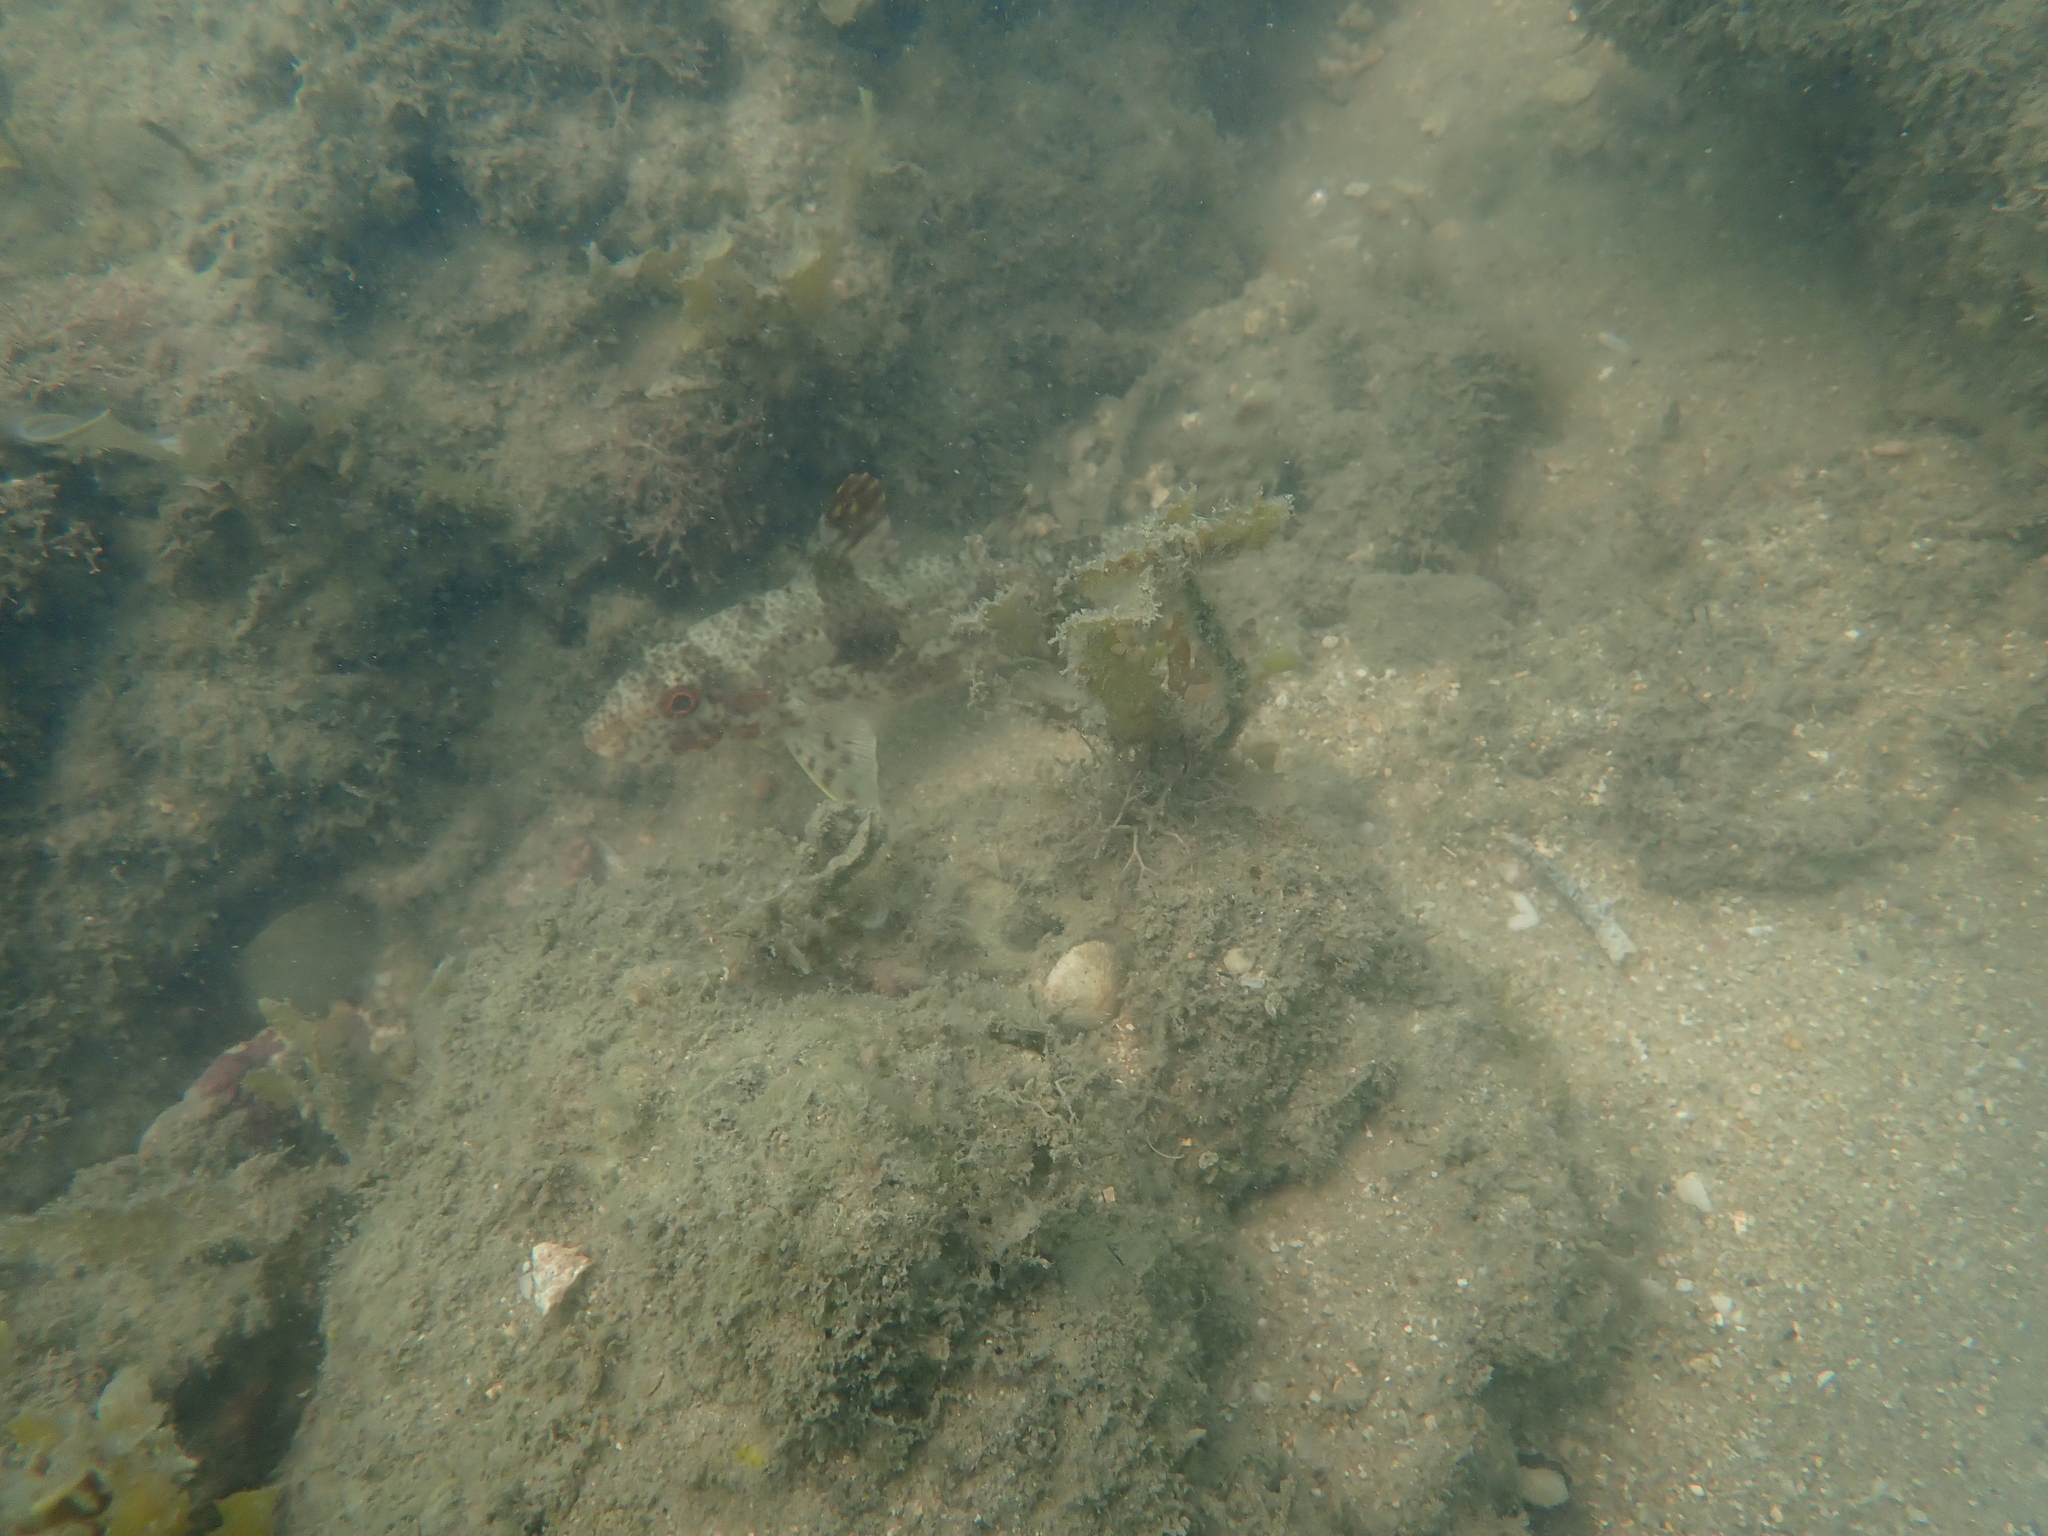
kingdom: Animalia
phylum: Chordata
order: Perciformes
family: Mullidae
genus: Upeneus
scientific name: Upeneus tragula
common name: Freckled goatfish
